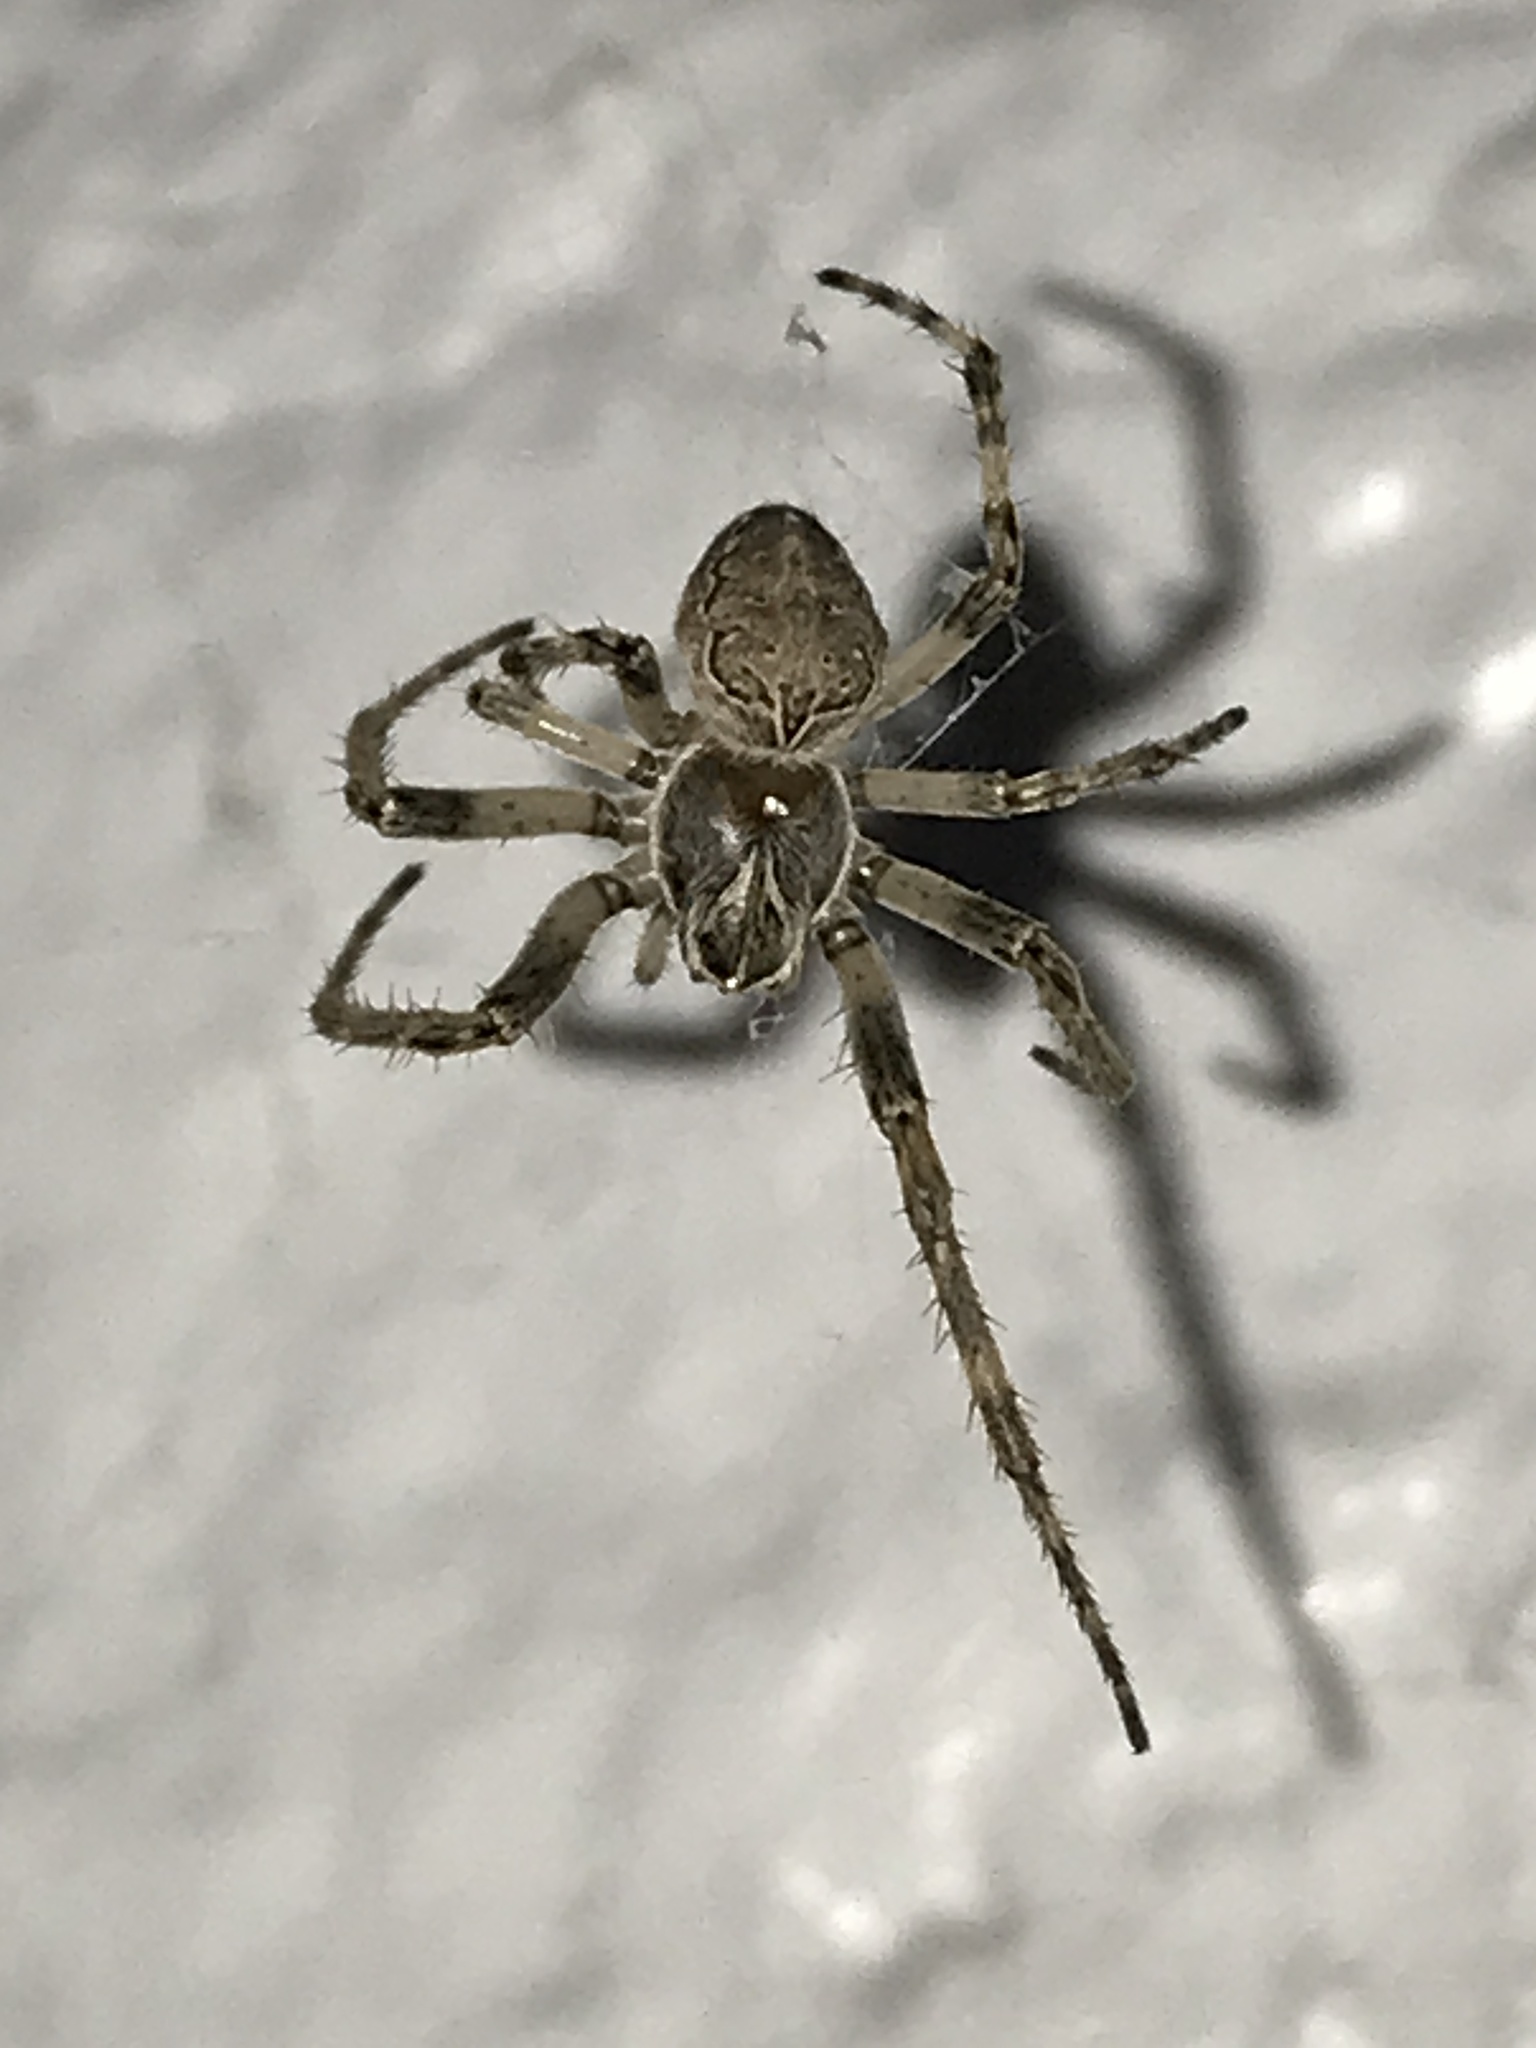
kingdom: Animalia
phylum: Arthropoda
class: Arachnida
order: Araneae
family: Araneidae
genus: Larinioides
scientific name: Larinioides sclopetarius
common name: Bridge orbweaver
